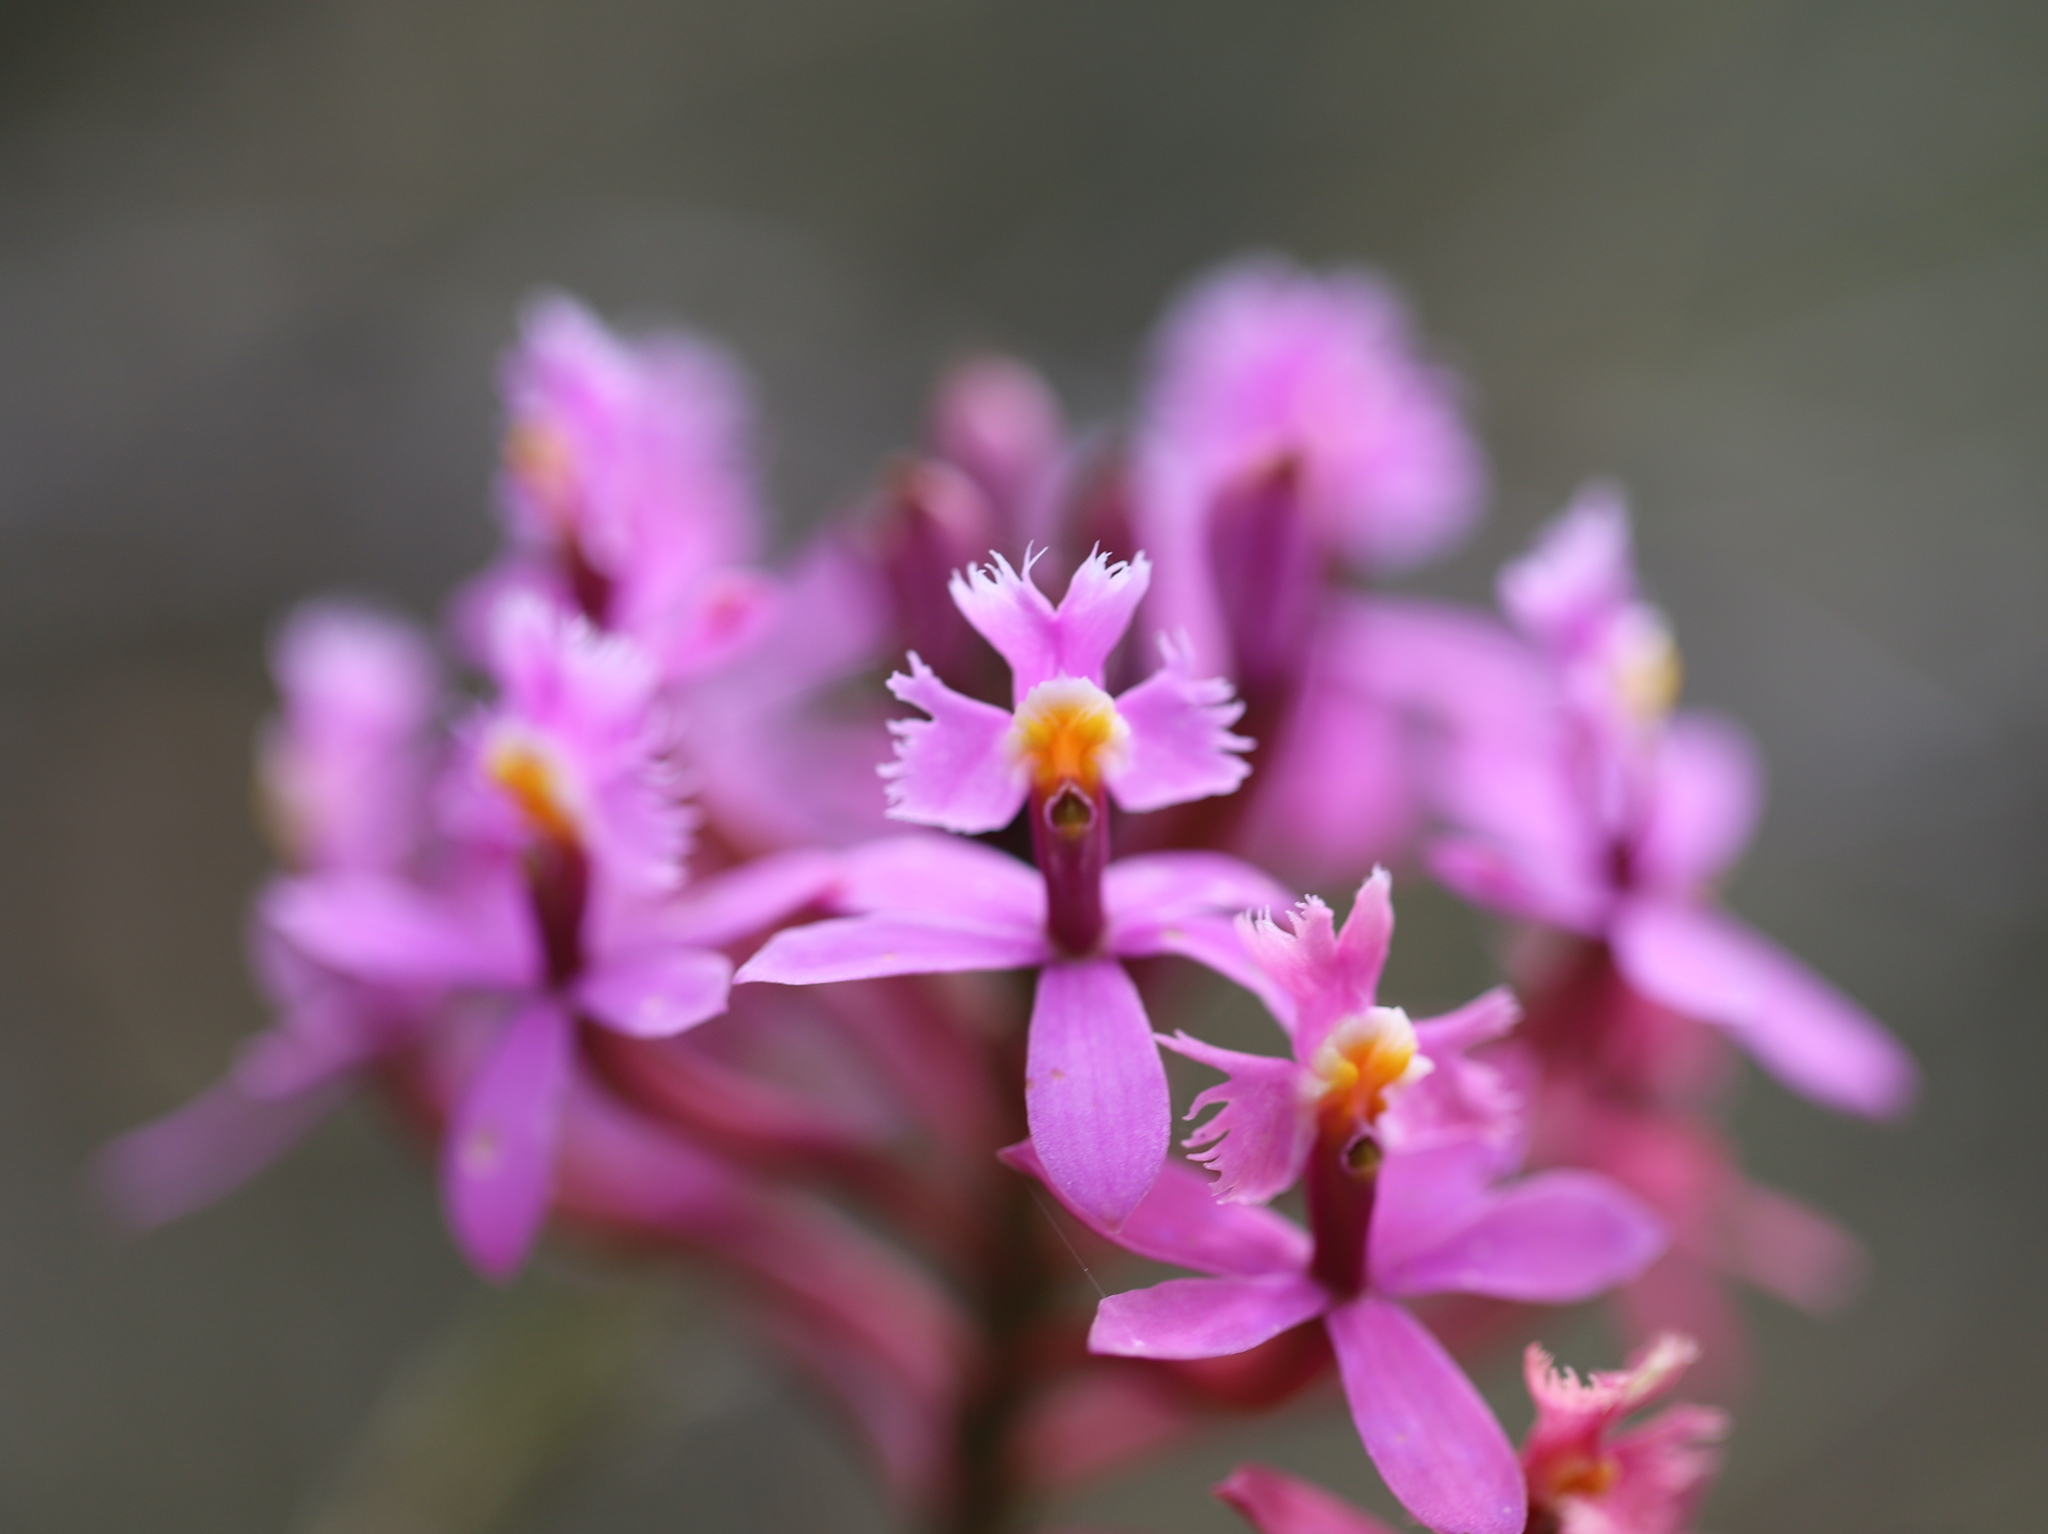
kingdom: Plantae
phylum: Tracheophyta
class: Liliopsida
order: Asparagales
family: Orchidaceae
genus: Epidendrum
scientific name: Epidendrum arachnoglossum
